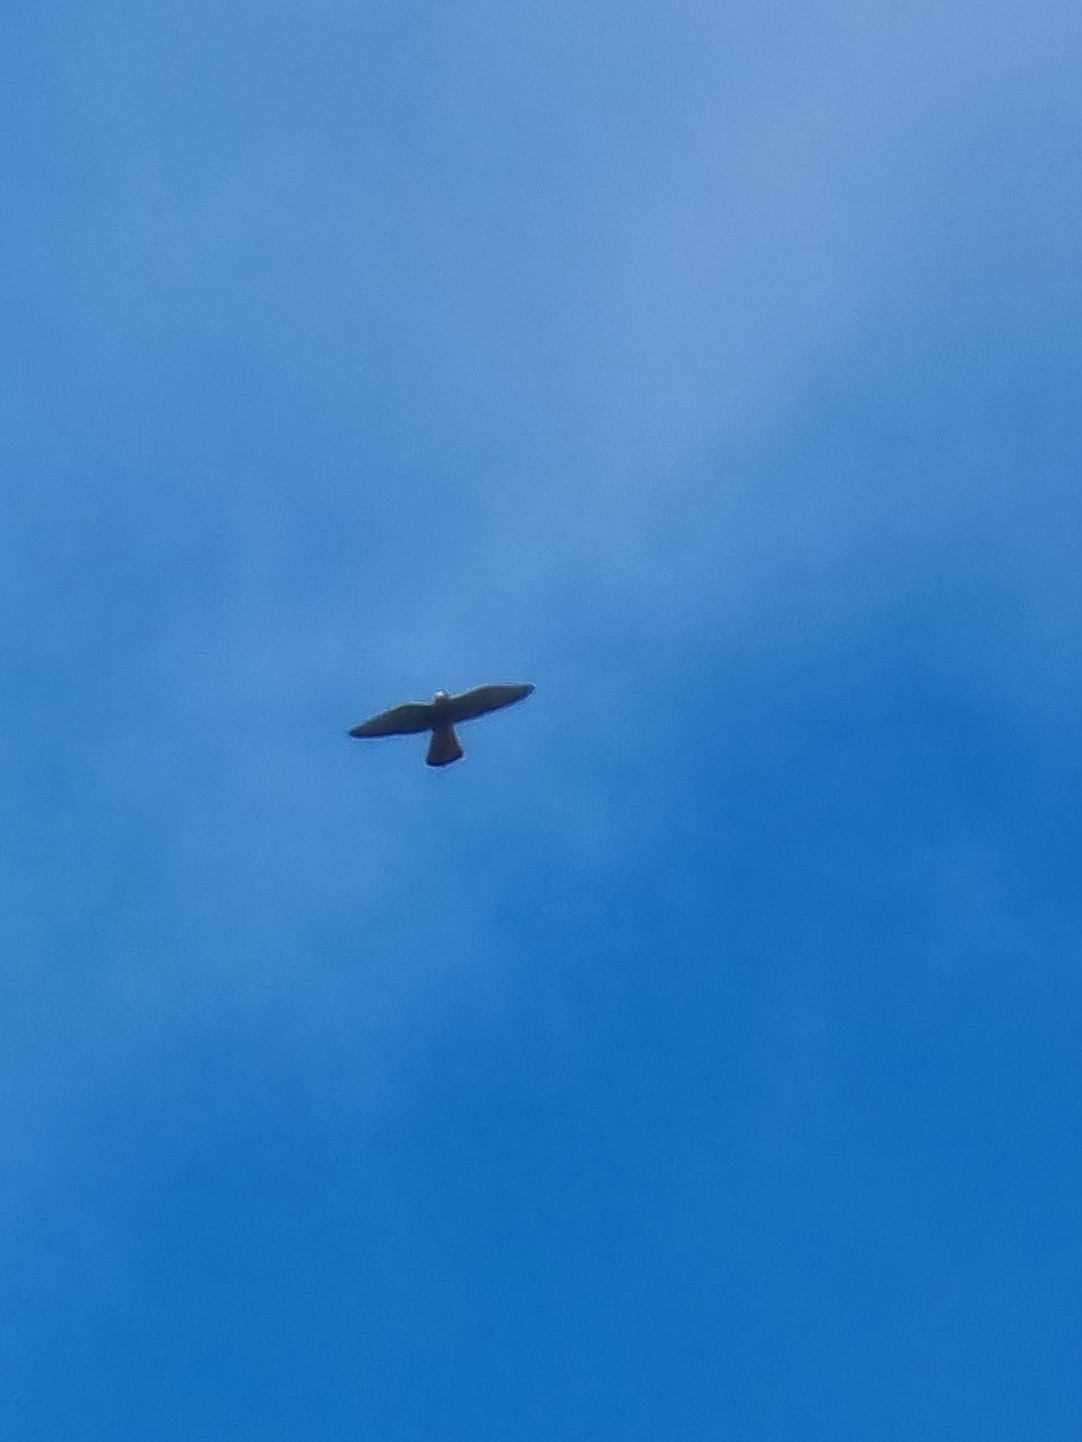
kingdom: Animalia
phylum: Chordata
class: Aves
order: Falconiformes
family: Falconidae
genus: Falco
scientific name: Falco tinnunculus
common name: Common kestrel
